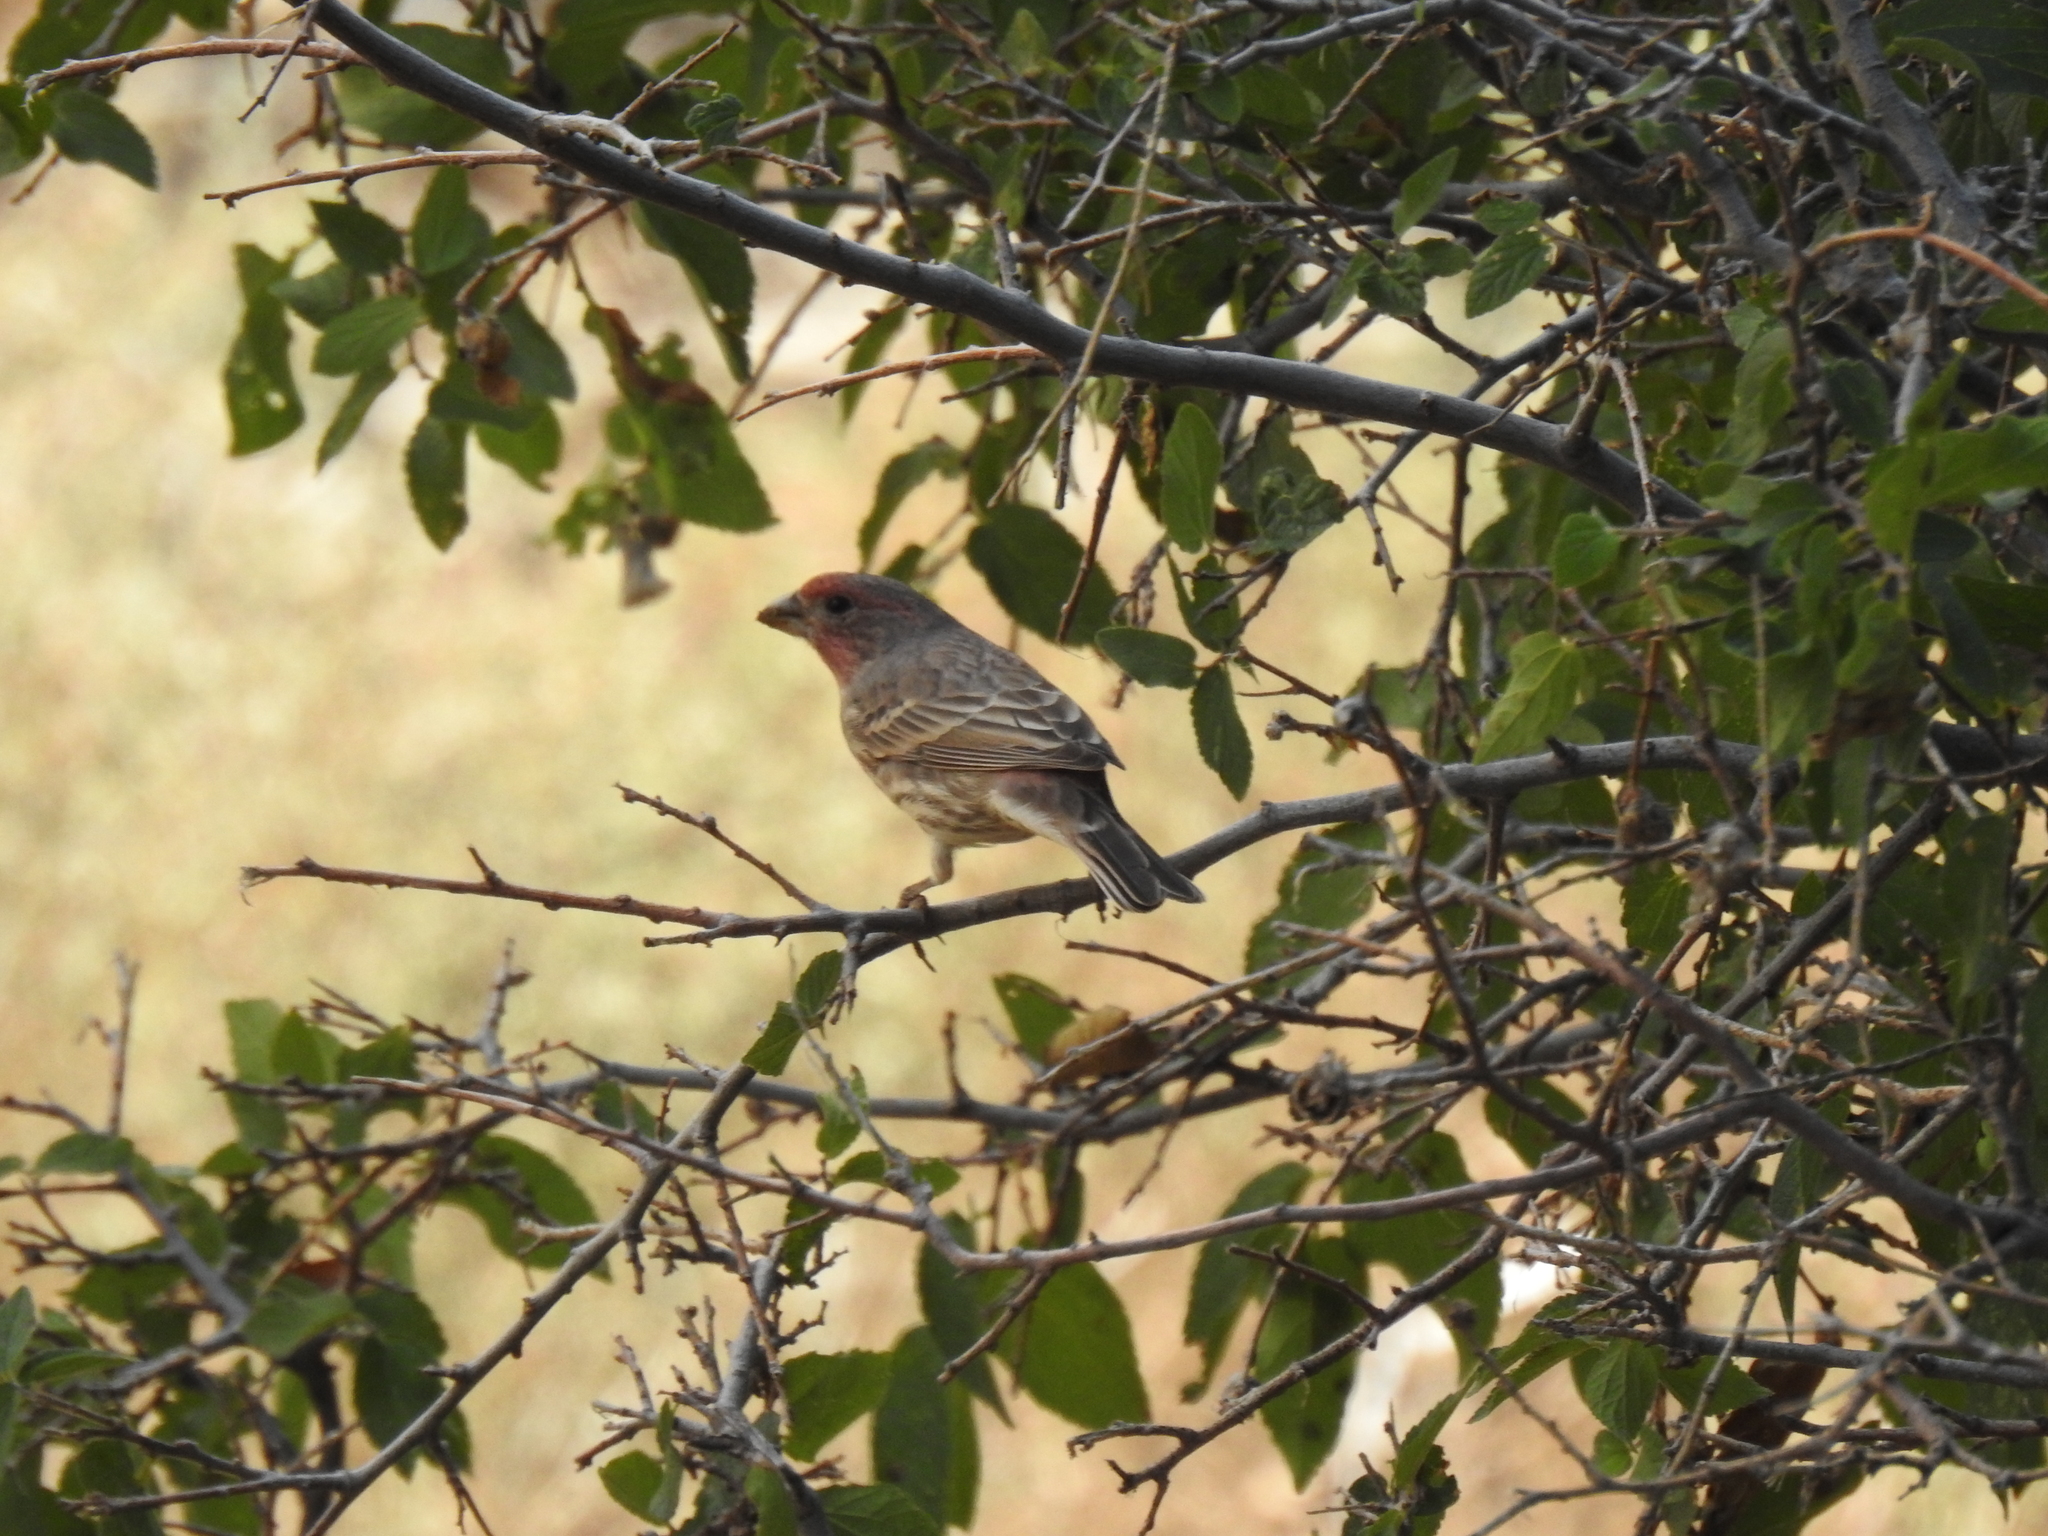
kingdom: Animalia
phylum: Chordata
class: Aves
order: Passeriformes
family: Fringillidae
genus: Haemorhous
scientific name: Haemorhous mexicanus
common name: House finch
